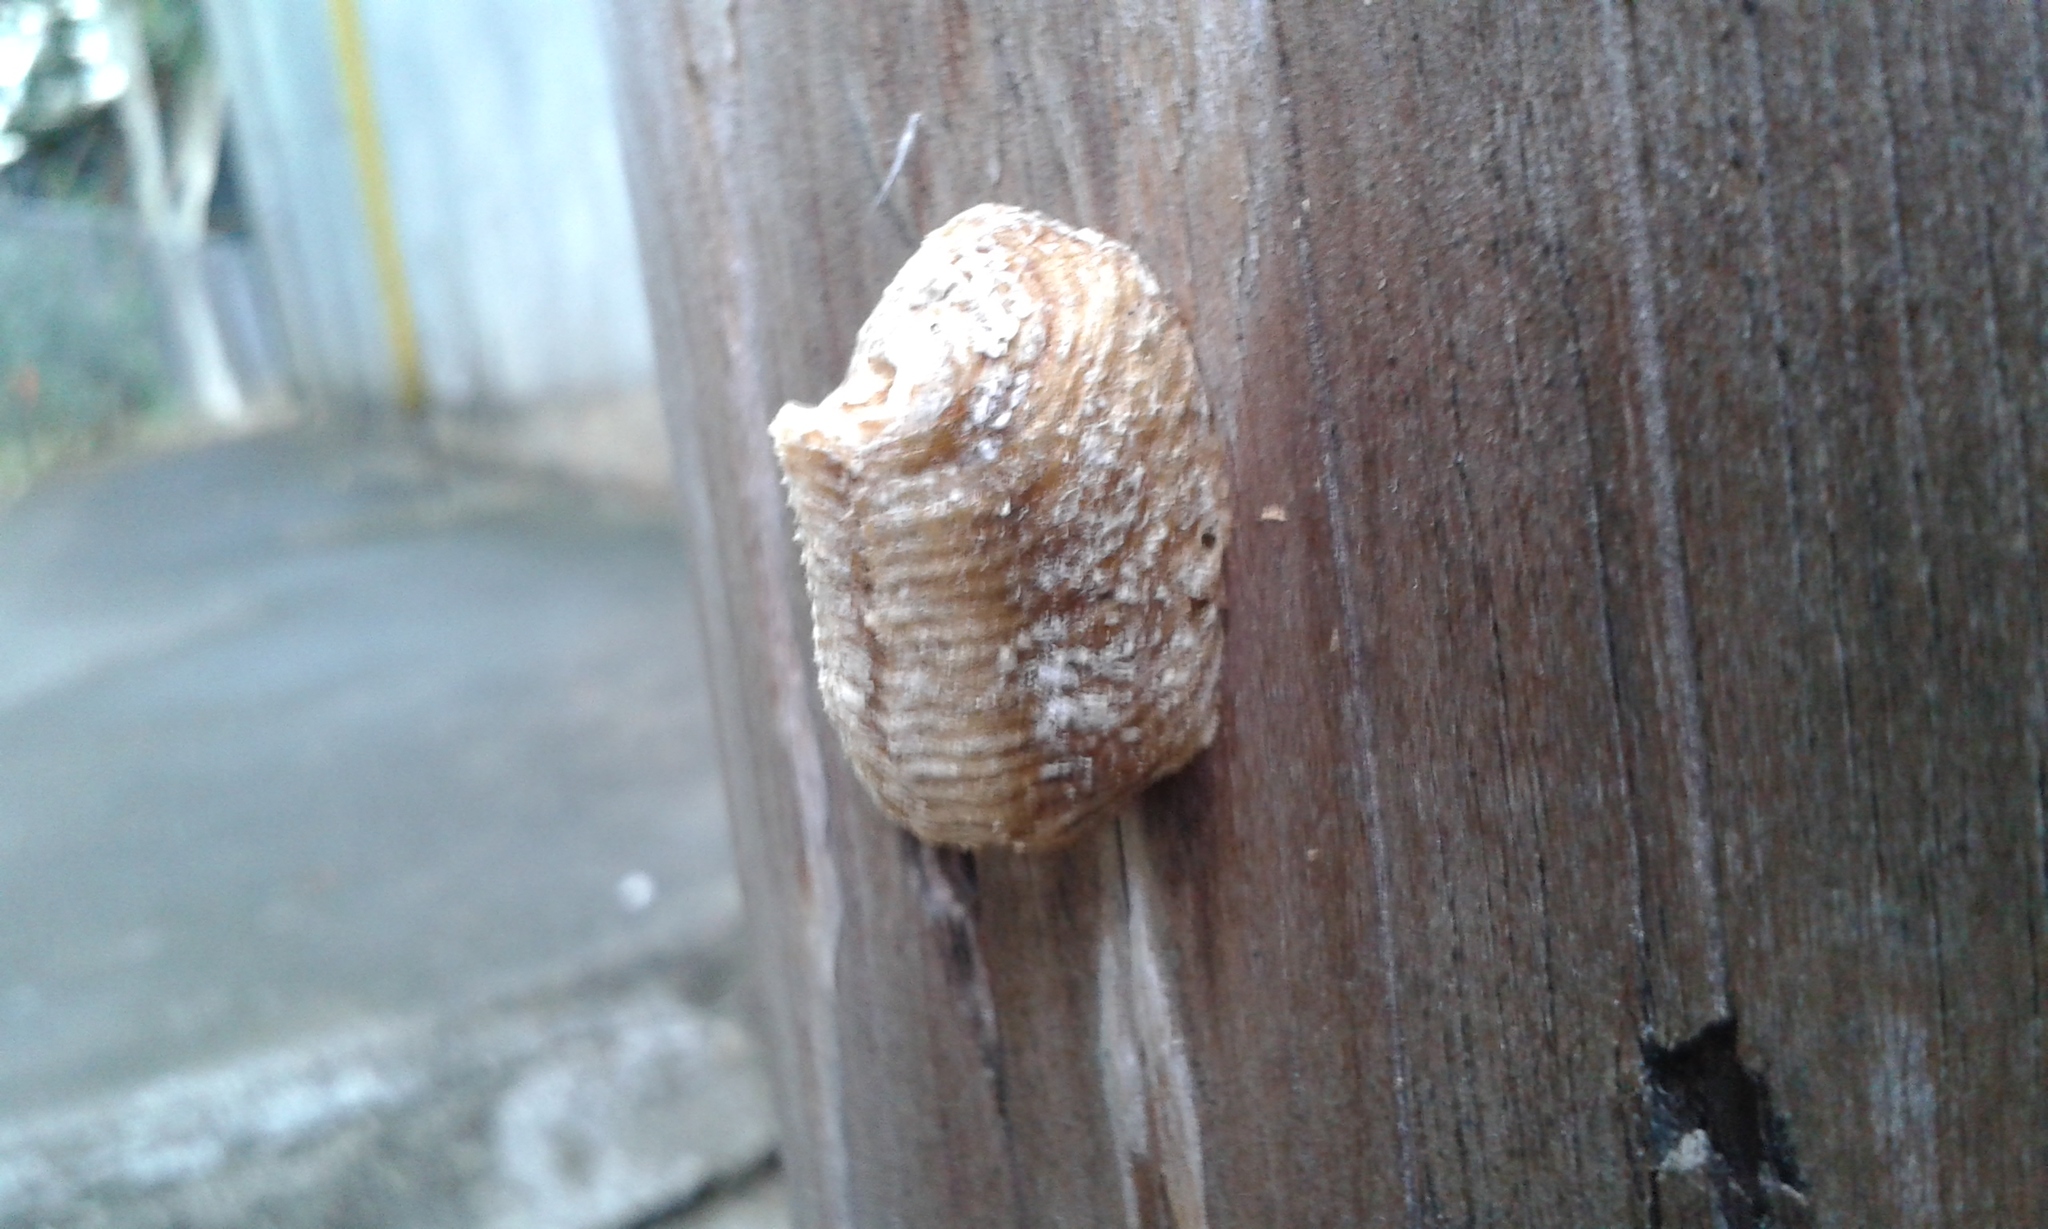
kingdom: Animalia
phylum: Arthropoda
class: Insecta
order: Mantodea
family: Mantidae
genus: Hierodula
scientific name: Hierodula patellifera
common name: Asian mantis
